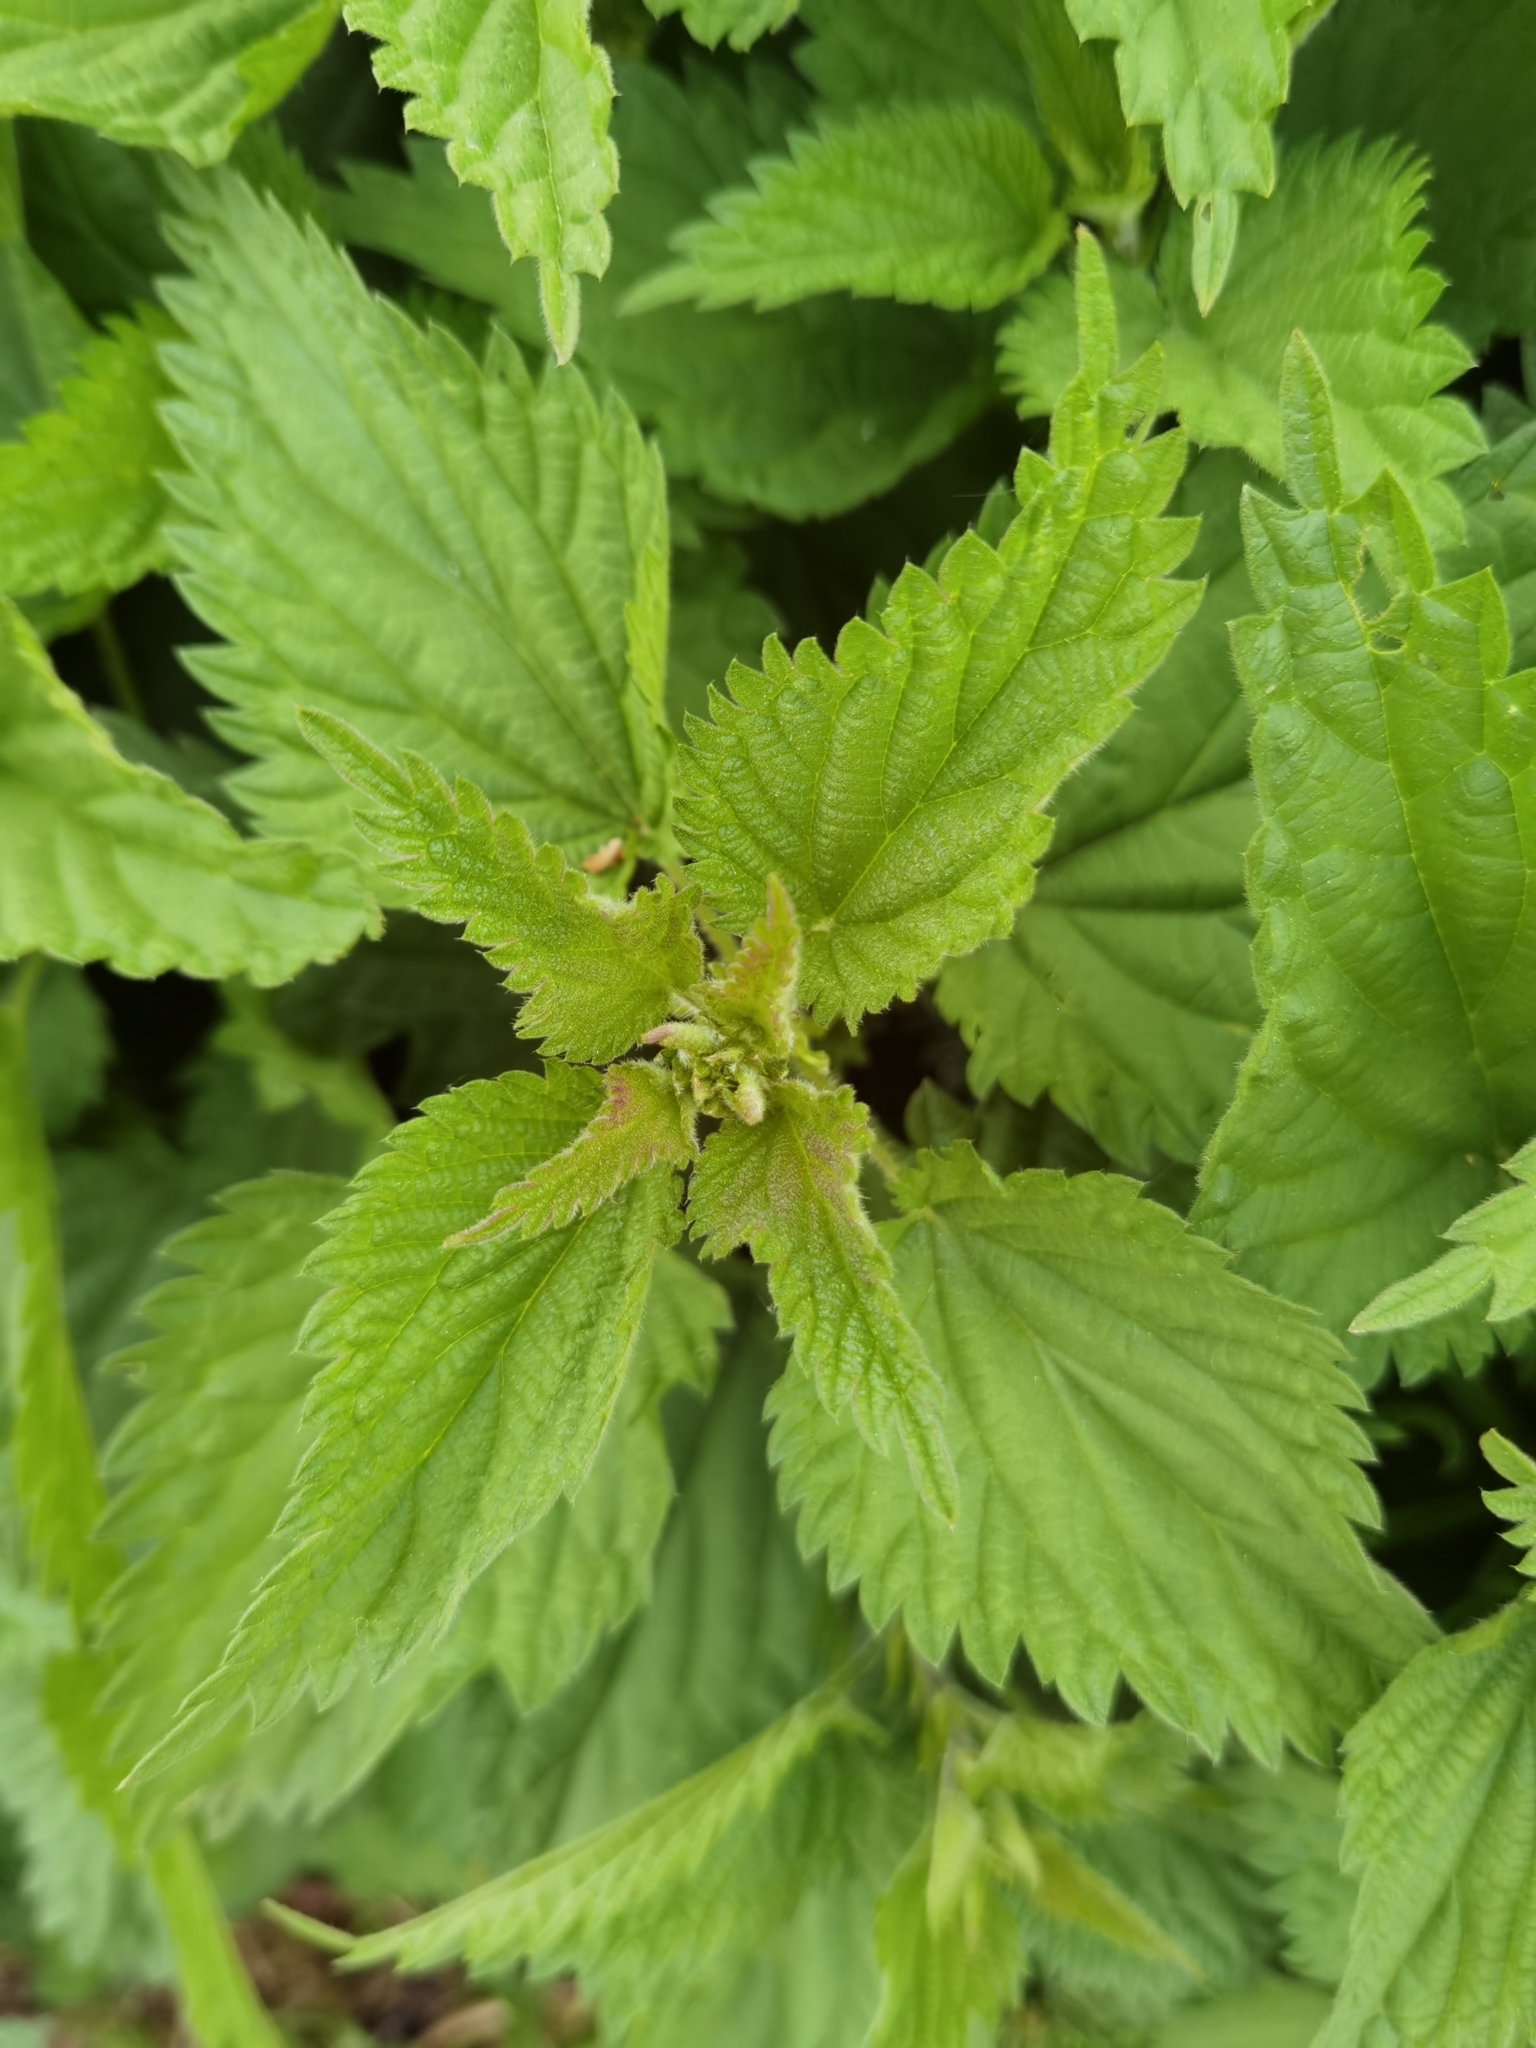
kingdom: Plantae
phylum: Tracheophyta
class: Magnoliopsida
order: Rosales
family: Urticaceae
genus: Urtica
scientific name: Urtica dioica
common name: Common nettle
